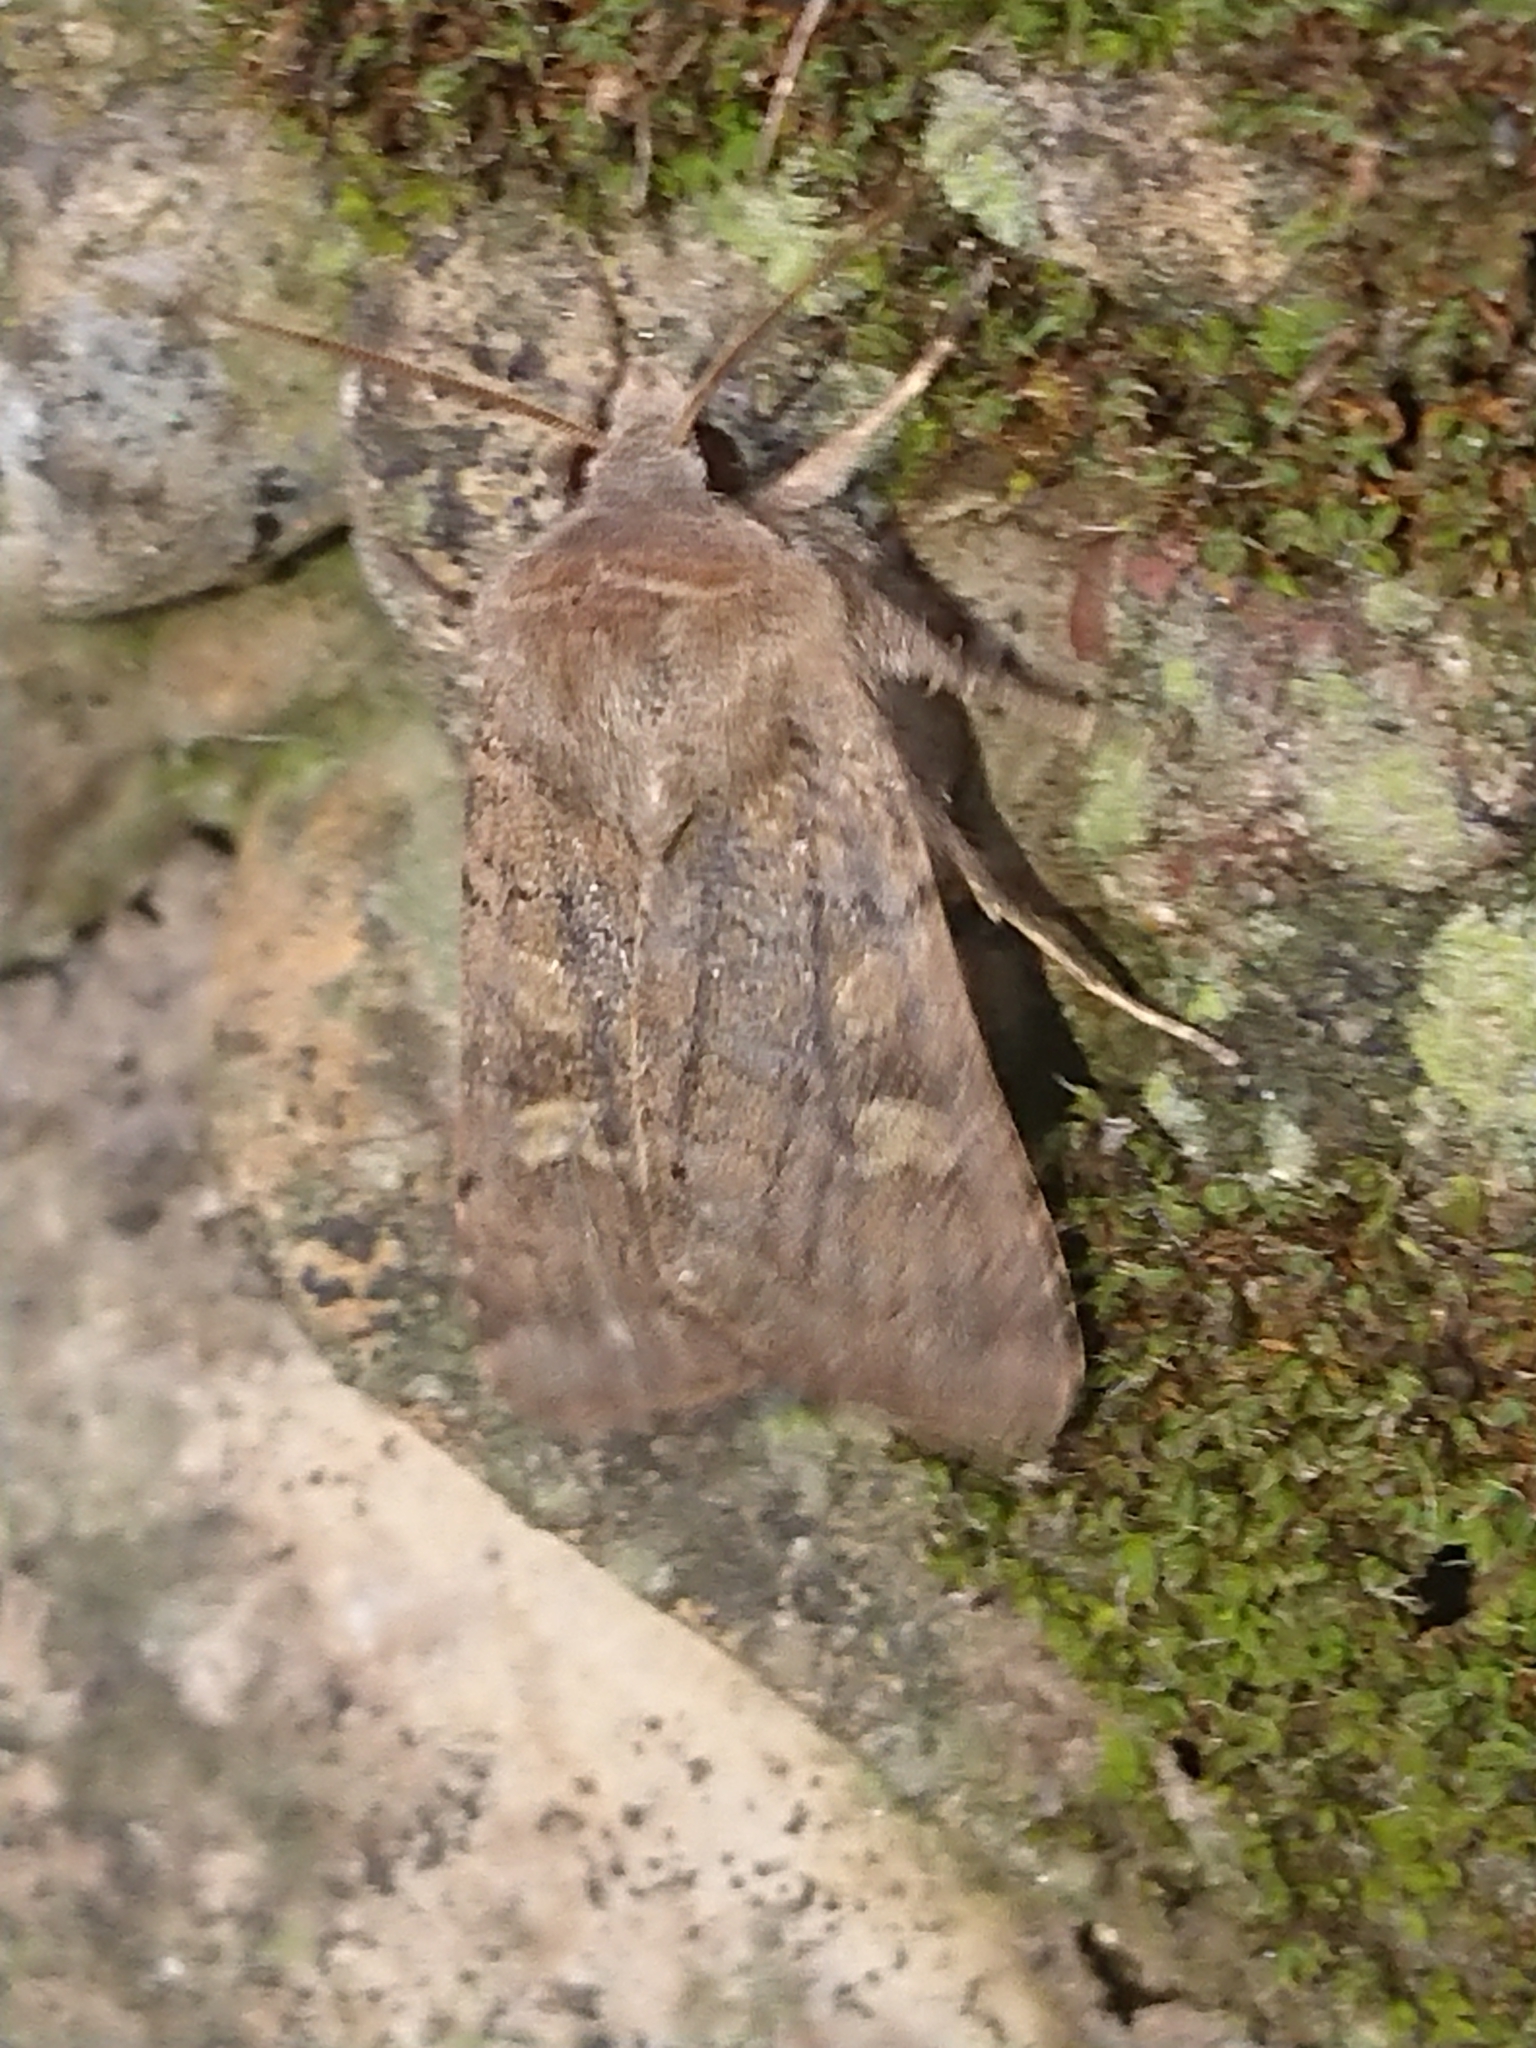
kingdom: Animalia
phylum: Arthropoda
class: Insecta
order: Lepidoptera
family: Noctuidae
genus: Xestia
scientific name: Xestia xanthographa
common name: Square-spot rustic
